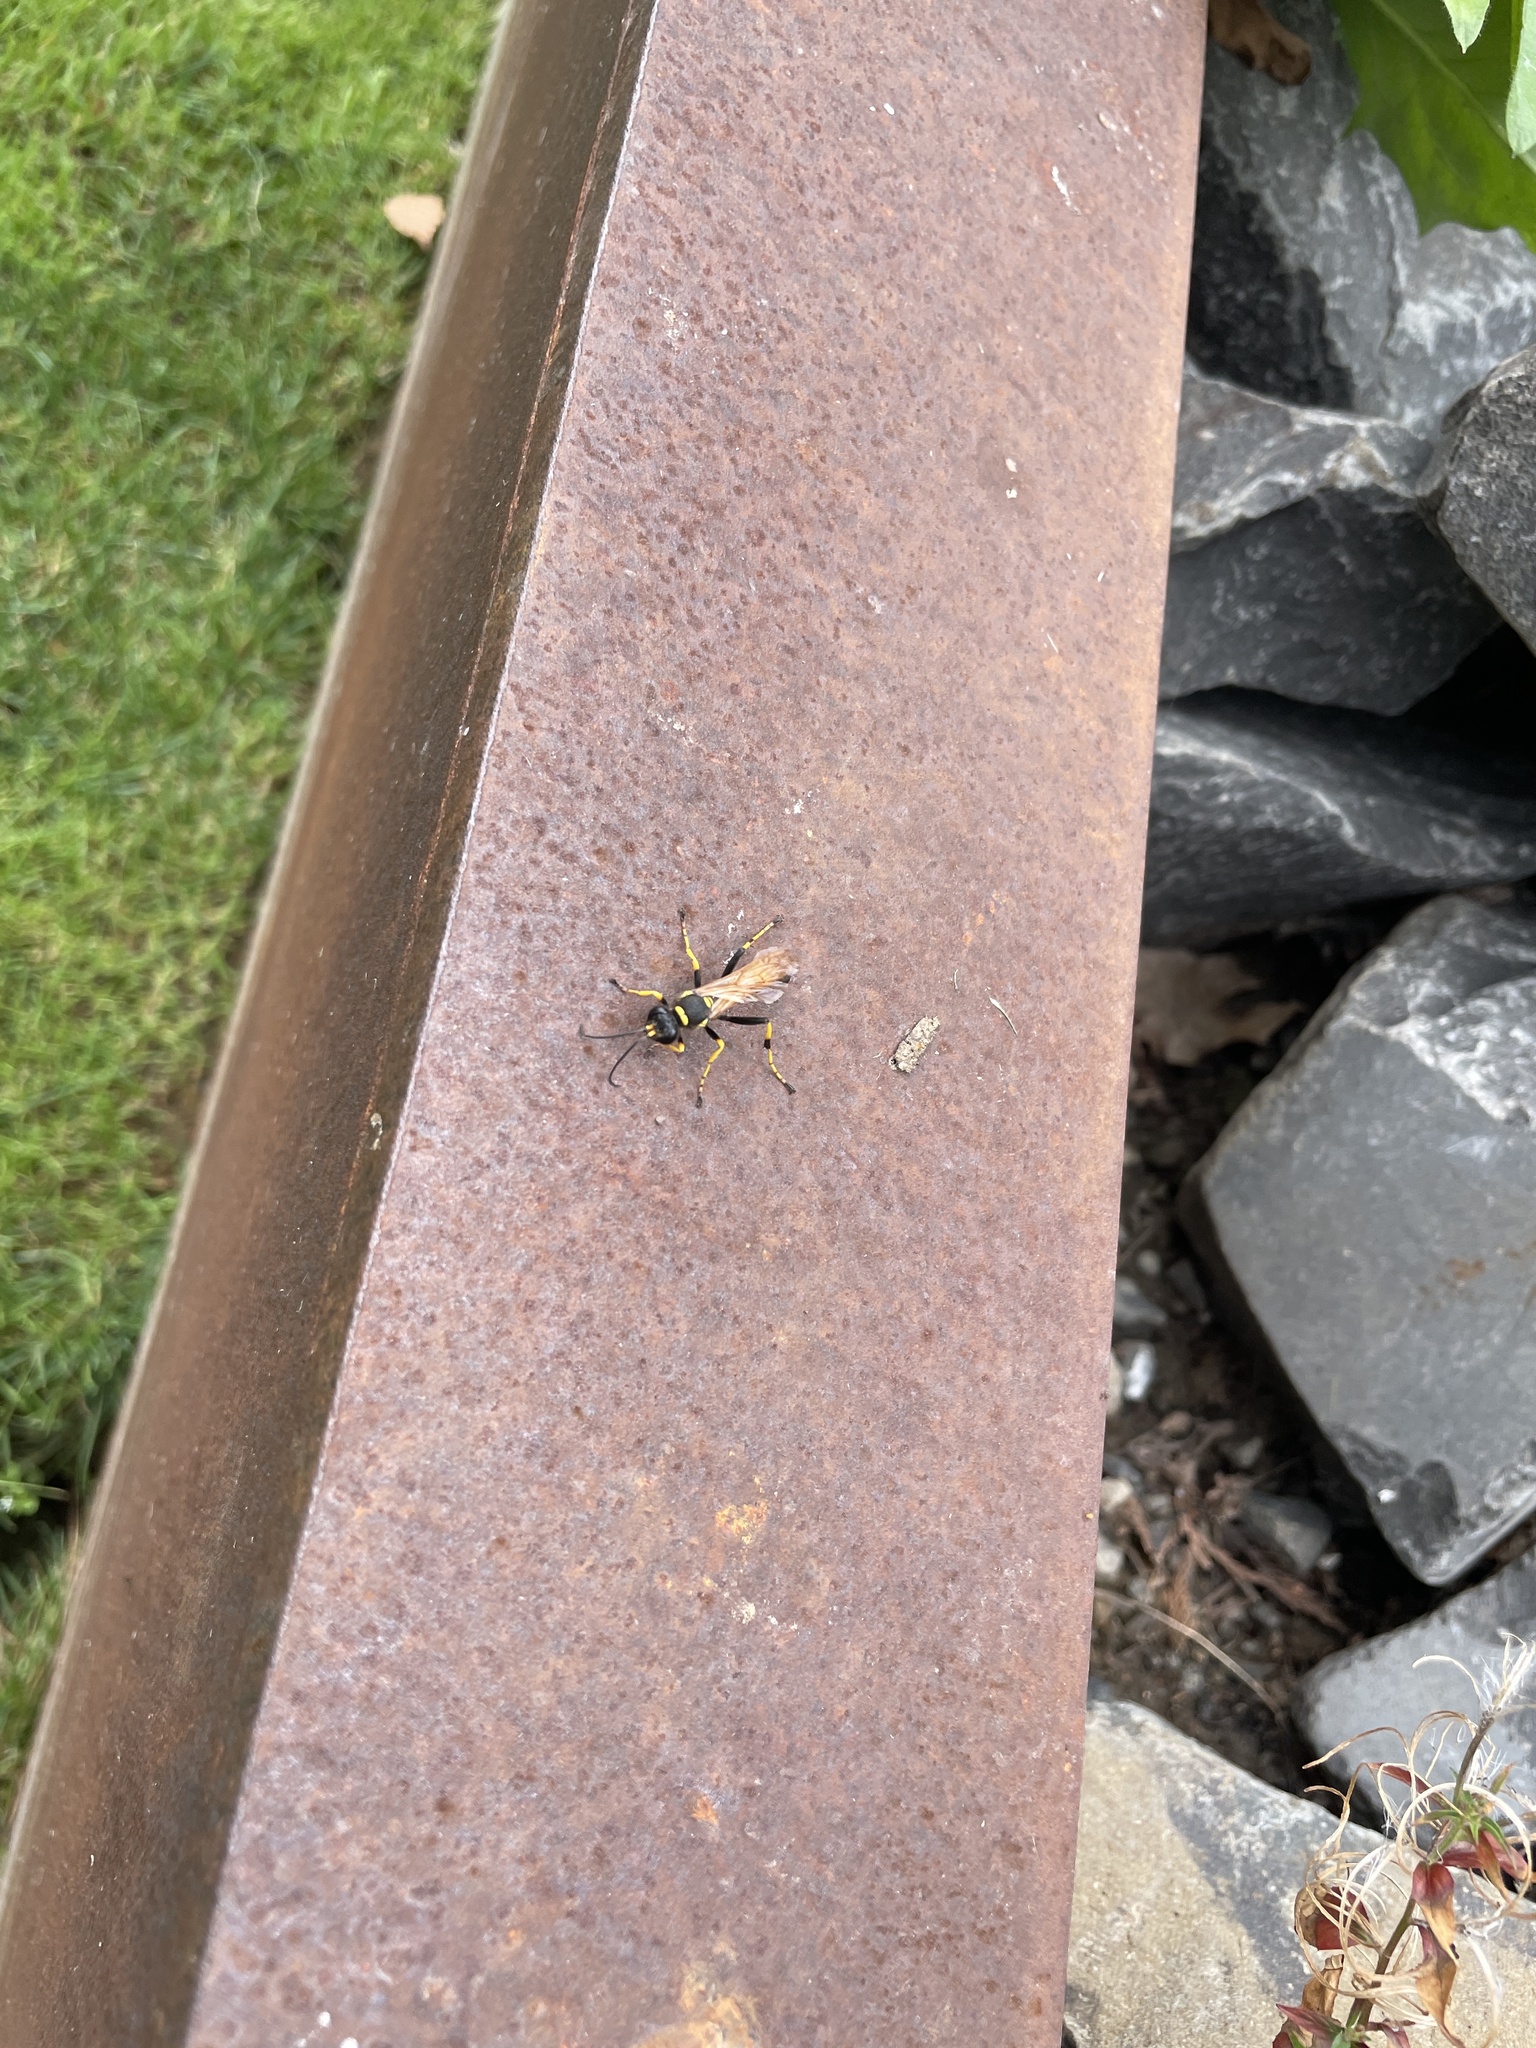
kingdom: Animalia
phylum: Arthropoda
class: Insecta
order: Hymenoptera
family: Sphecidae
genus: Sceliphron
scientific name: Sceliphron caementarium
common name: Mud dauber
